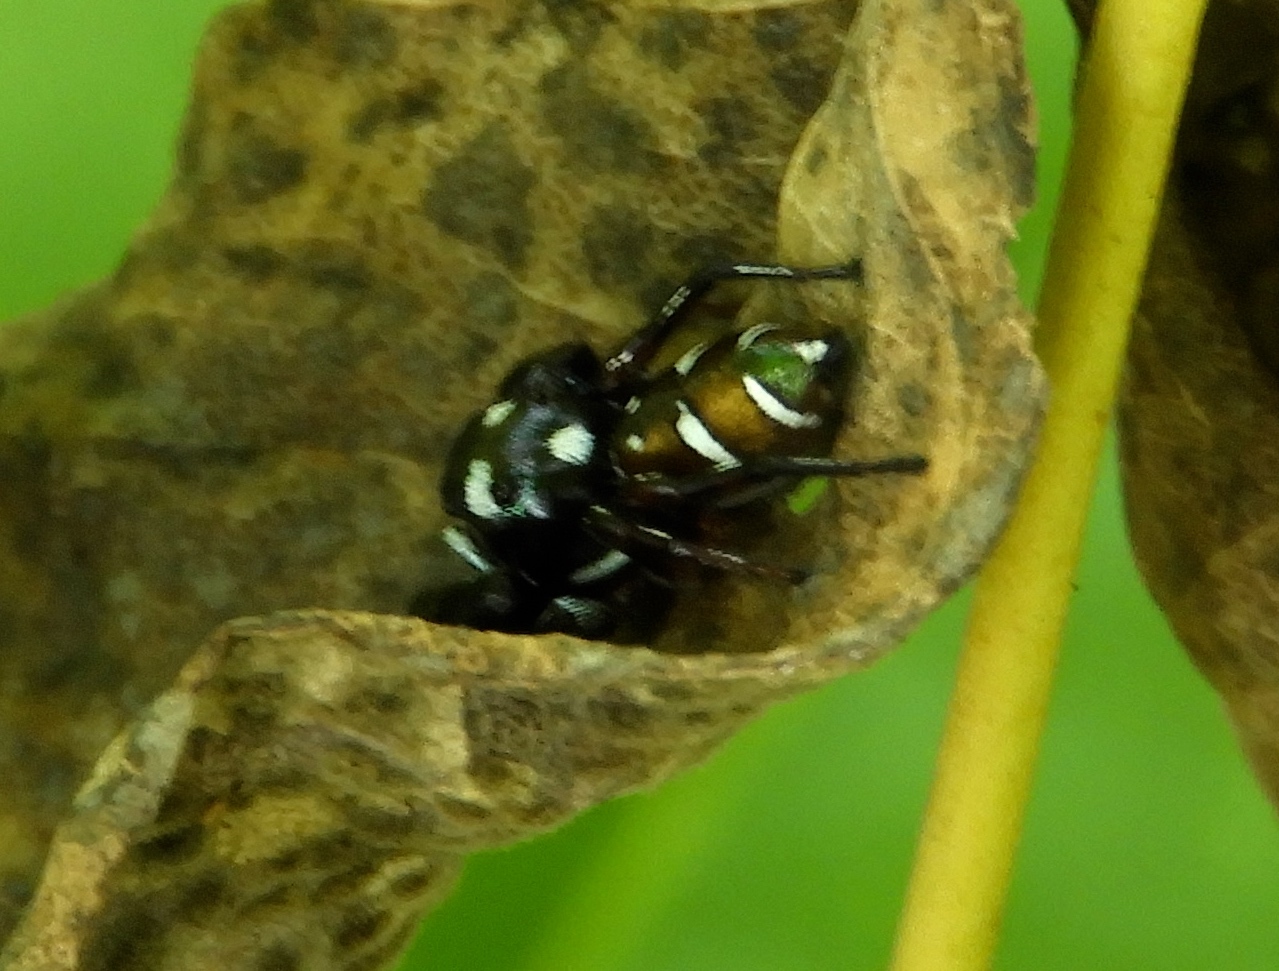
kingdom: Animalia
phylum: Arthropoda
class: Arachnida
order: Araneae
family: Salticidae
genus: Sassacus
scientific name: Sassacus
